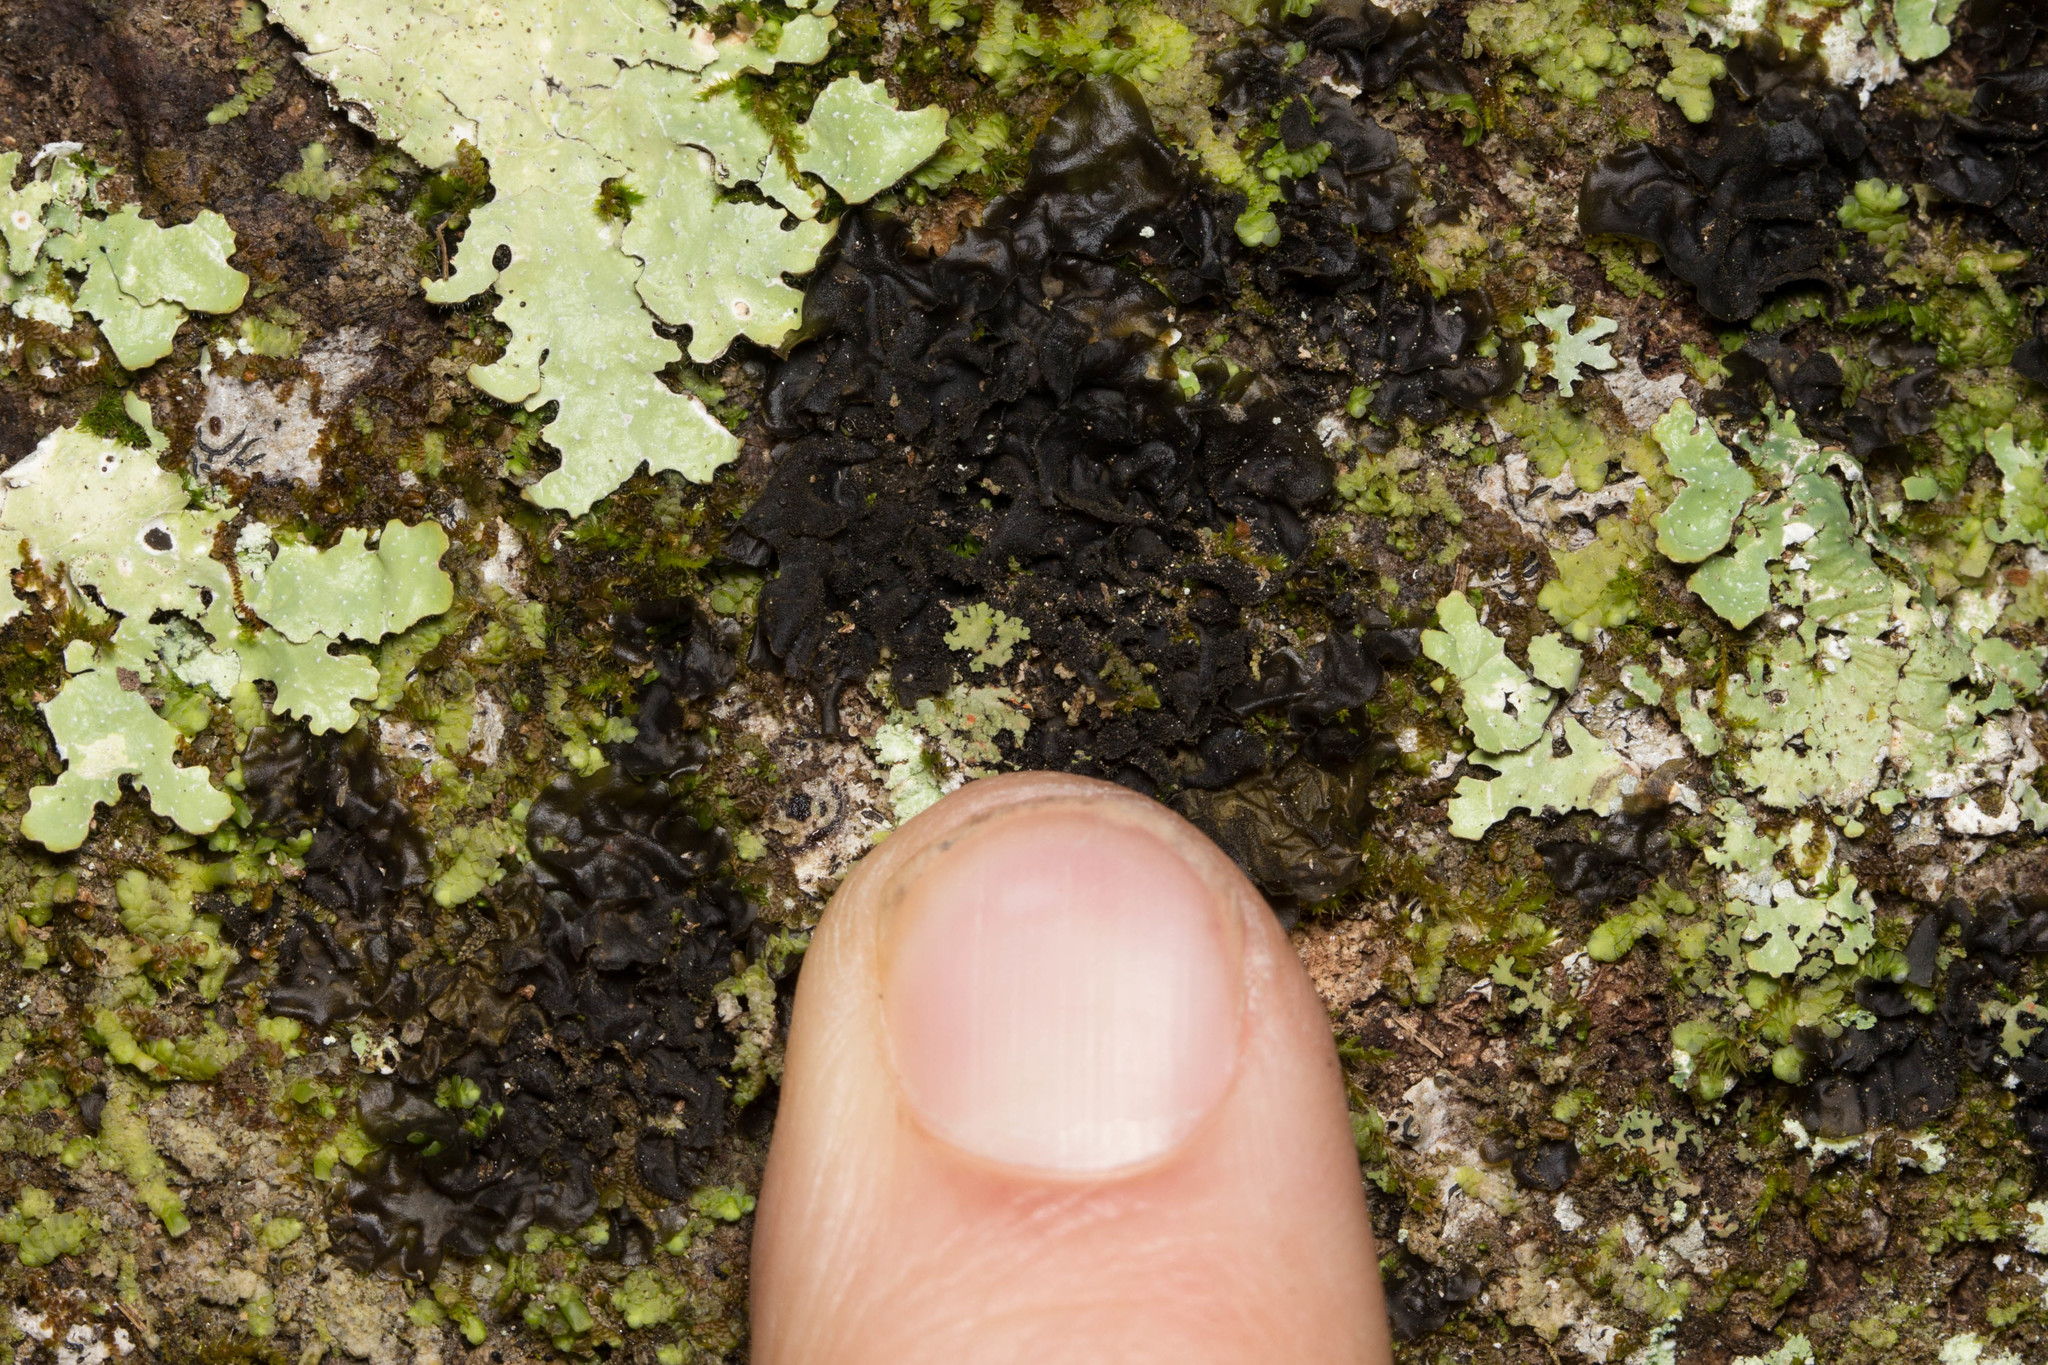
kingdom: Fungi
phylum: Ascomycota
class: Lecanoromycetes
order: Peltigerales
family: Collemataceae
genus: Collema
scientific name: Collema subflaccidum
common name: Tree jelly
